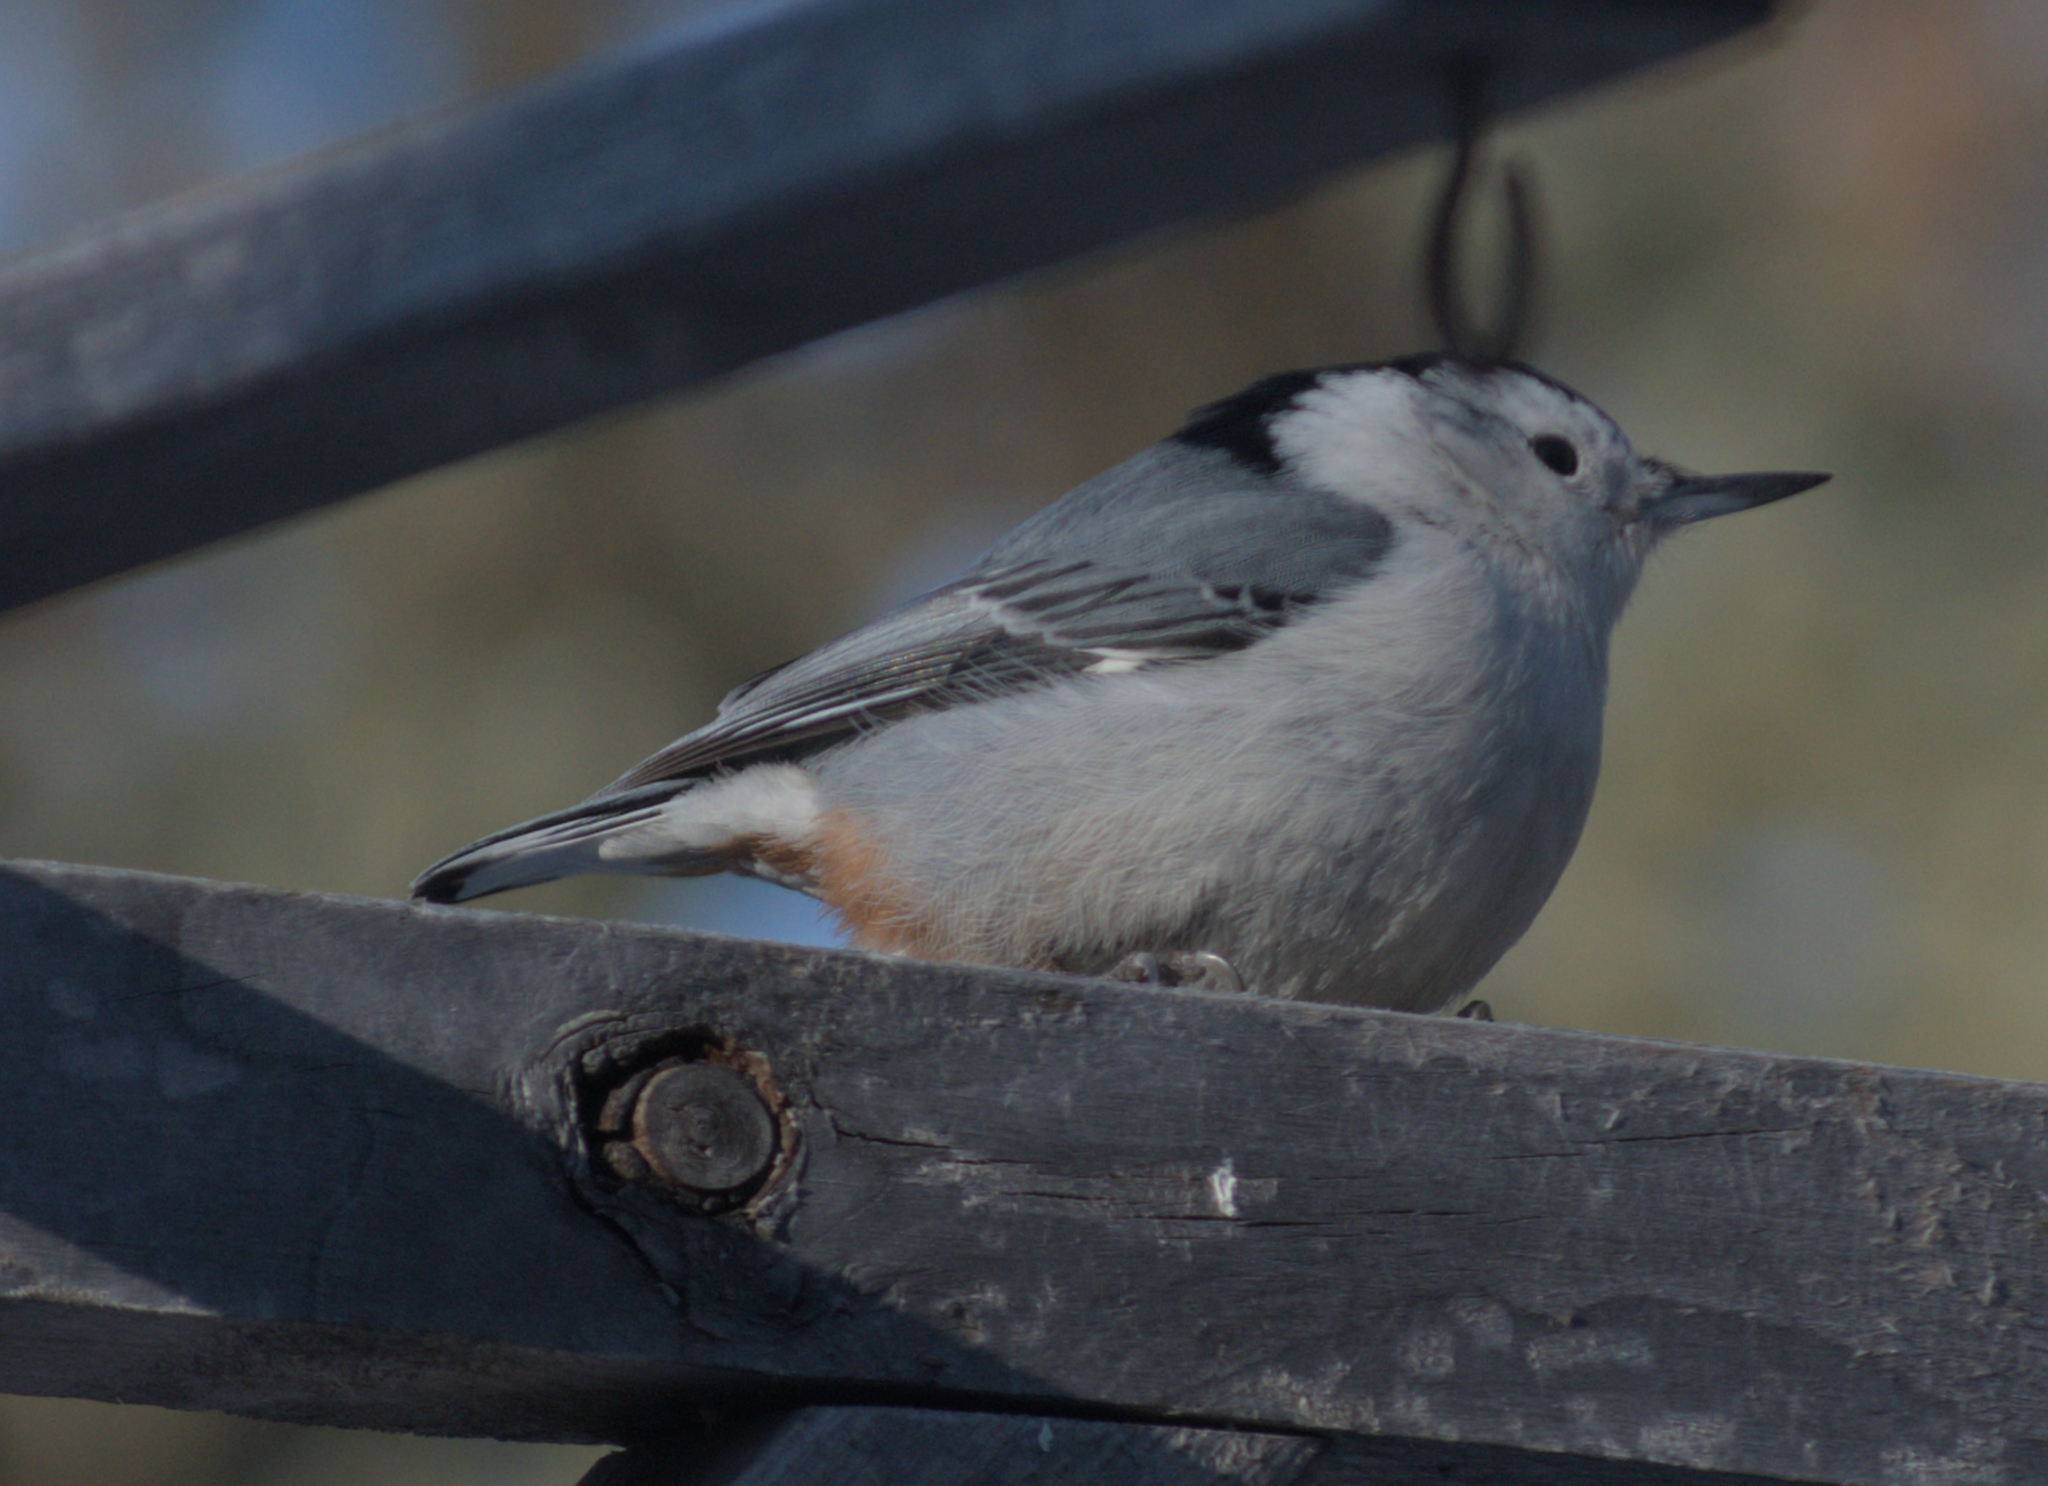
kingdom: Animalia
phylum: Chordata
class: Aves
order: Passeriformes
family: Sittidae
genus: Sitta
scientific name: Sitta carolinensis
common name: White-breasted nuthatch
